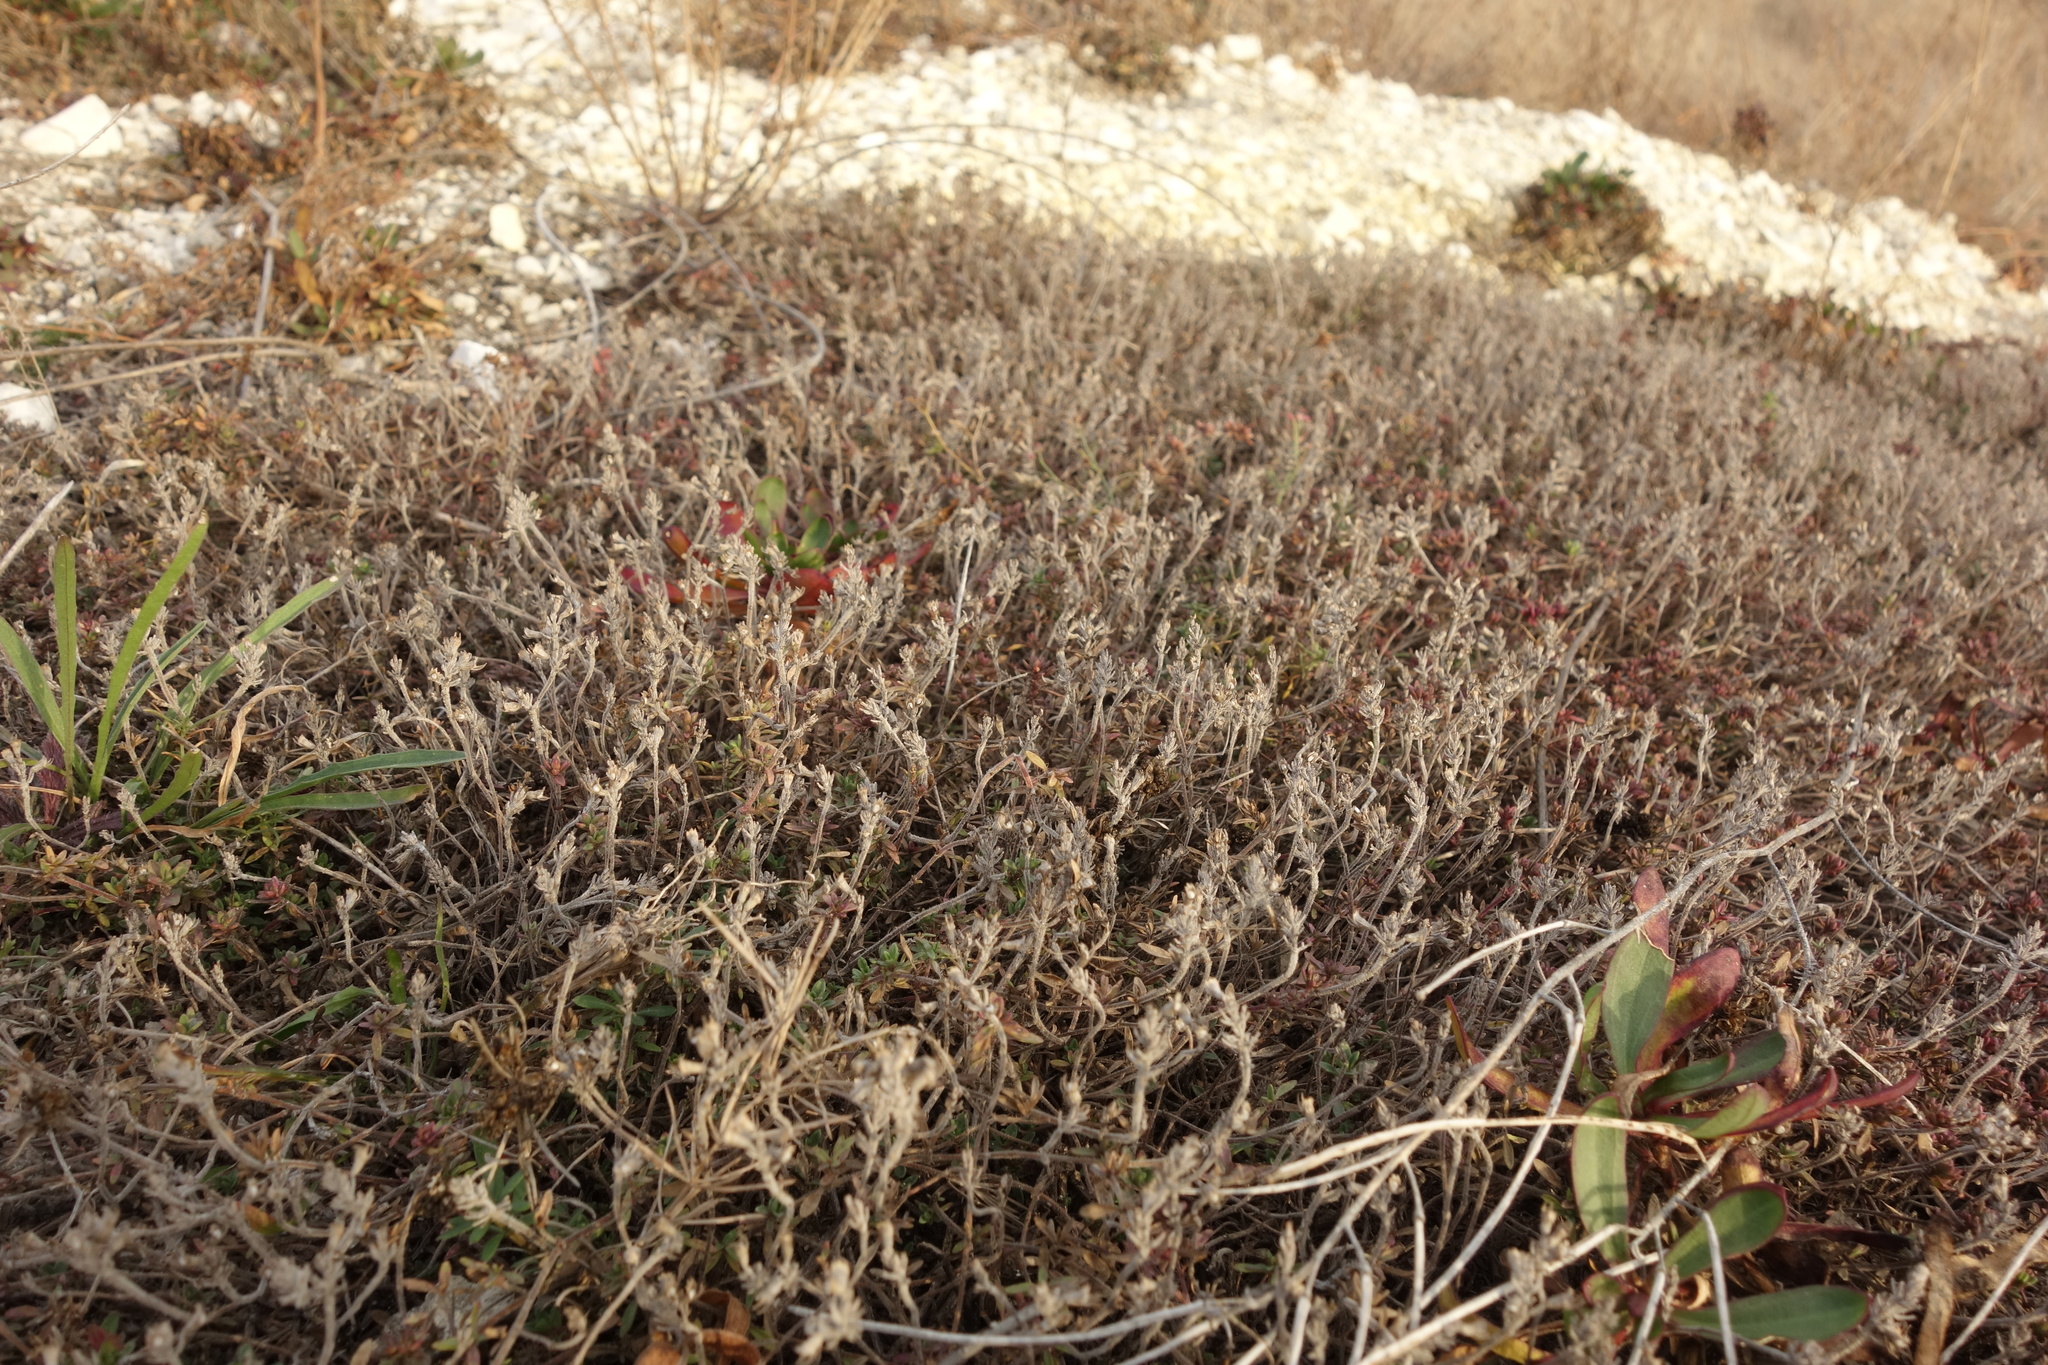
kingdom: Plantae
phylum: Tracheophyta
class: Magnoliopsida
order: Lamiales
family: Lamiaceae
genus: Thymus
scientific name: Thymus calcareus
